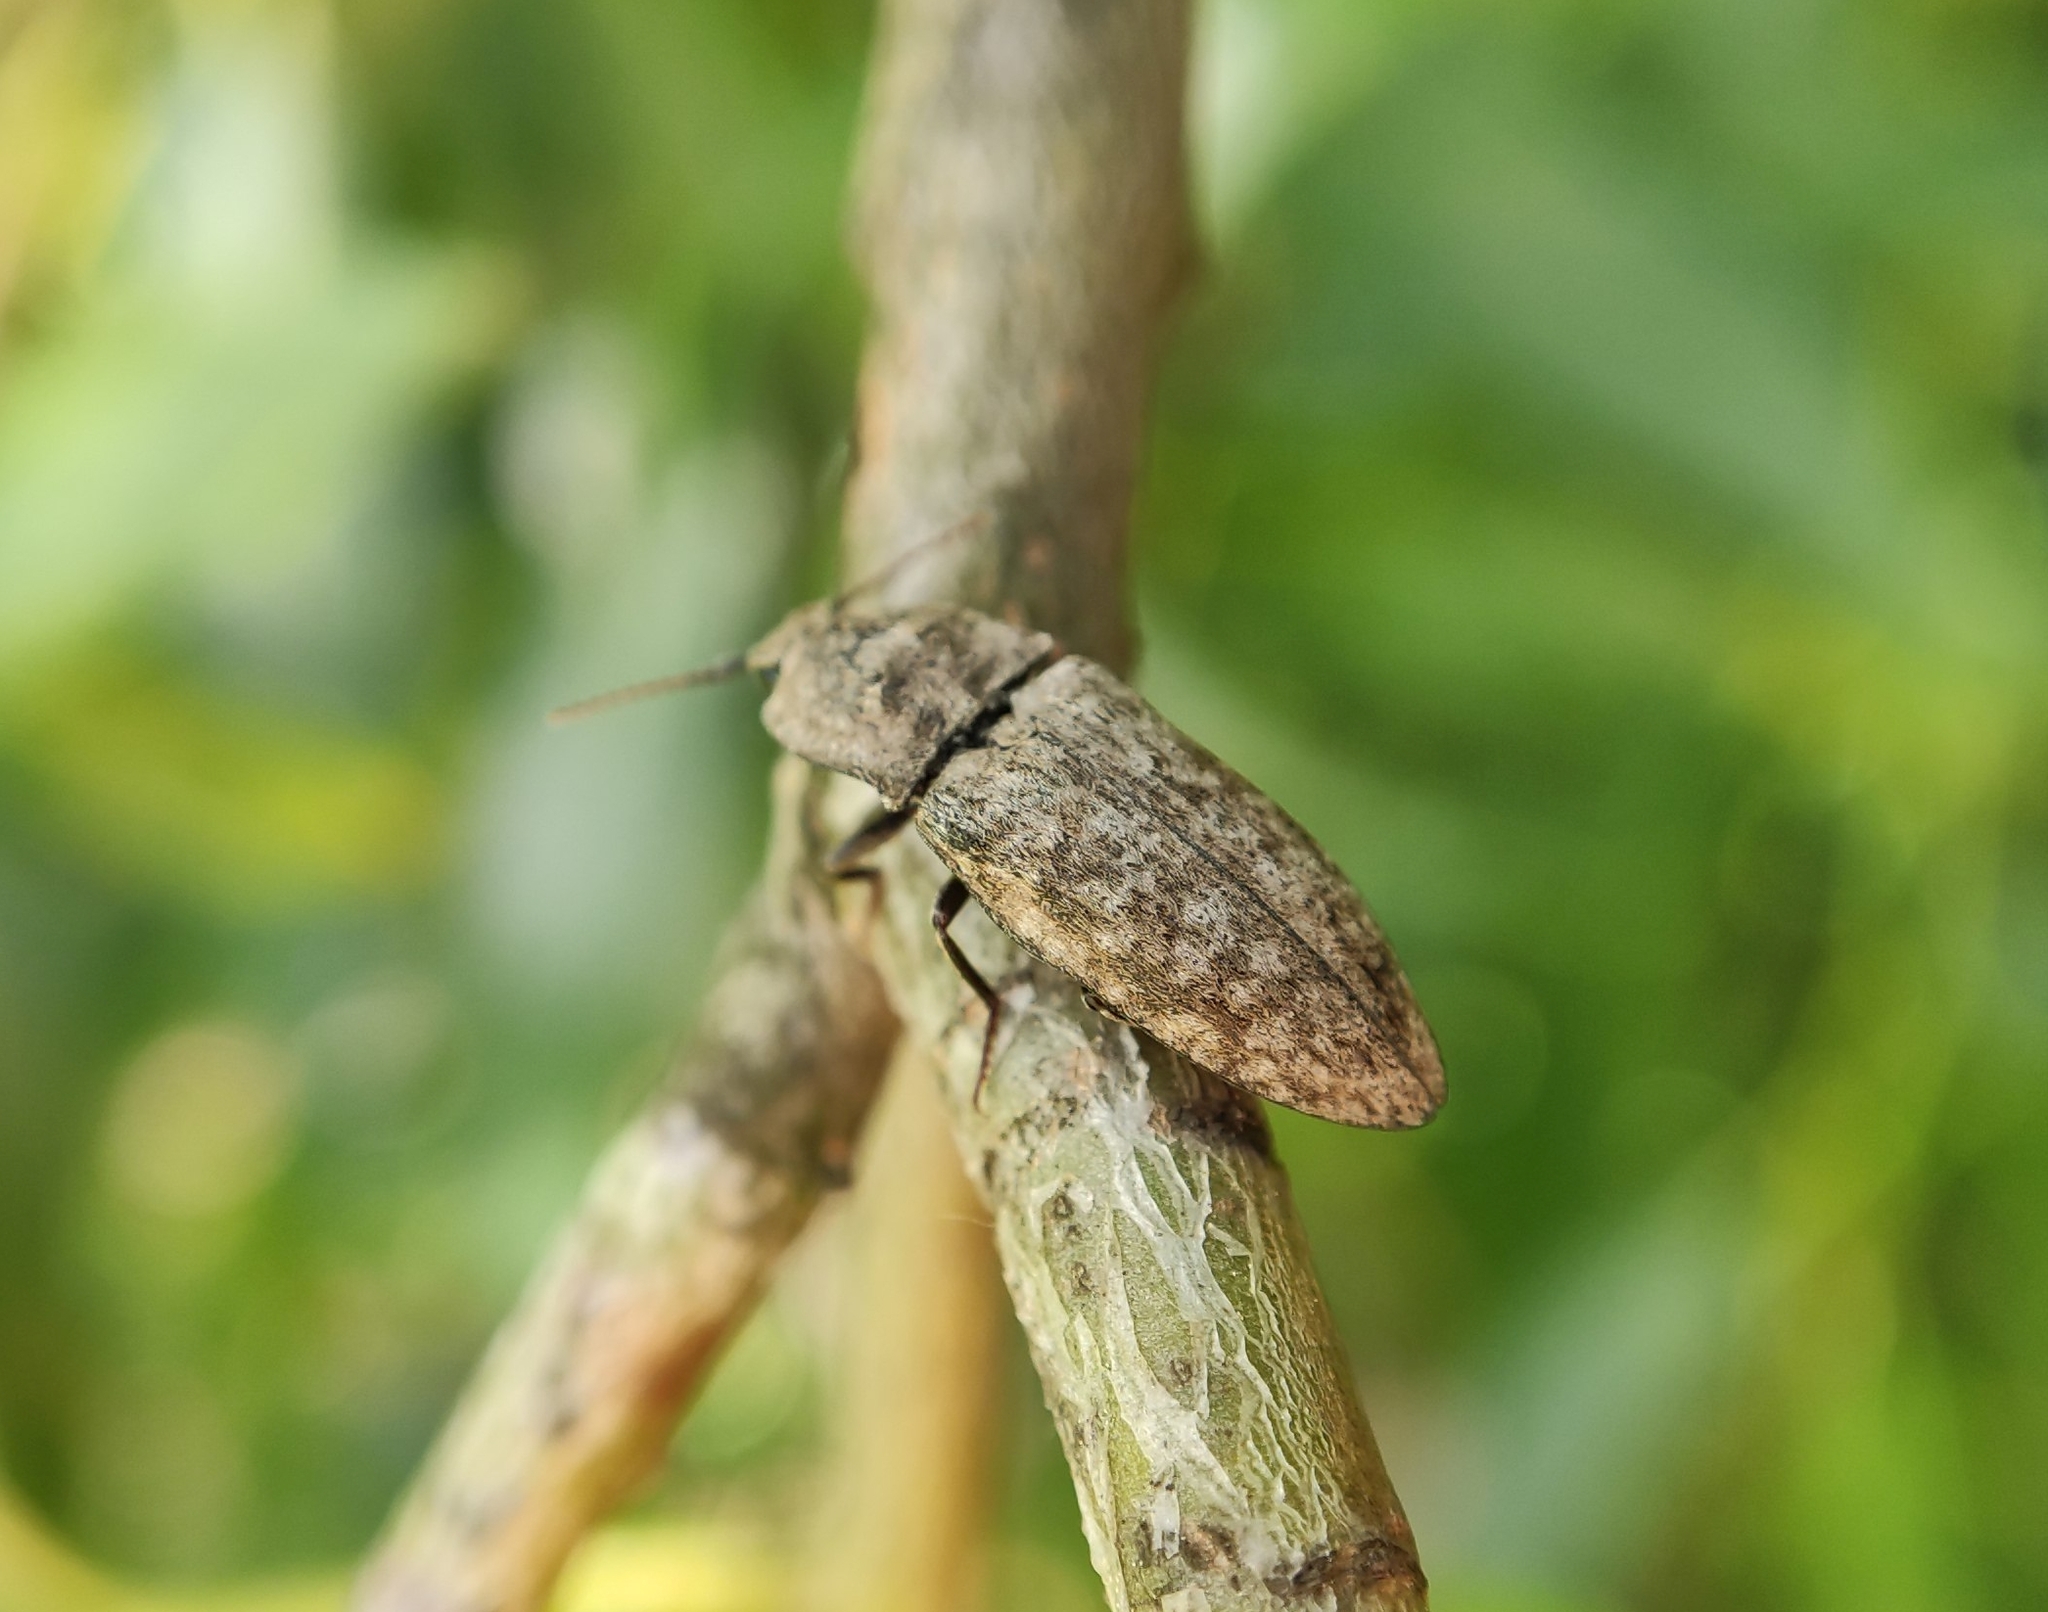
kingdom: Animalia
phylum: Arthropoda
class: Insecta
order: Coleoptera
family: Elateridae
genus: Agrypnus
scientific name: Agrypnus murinus
